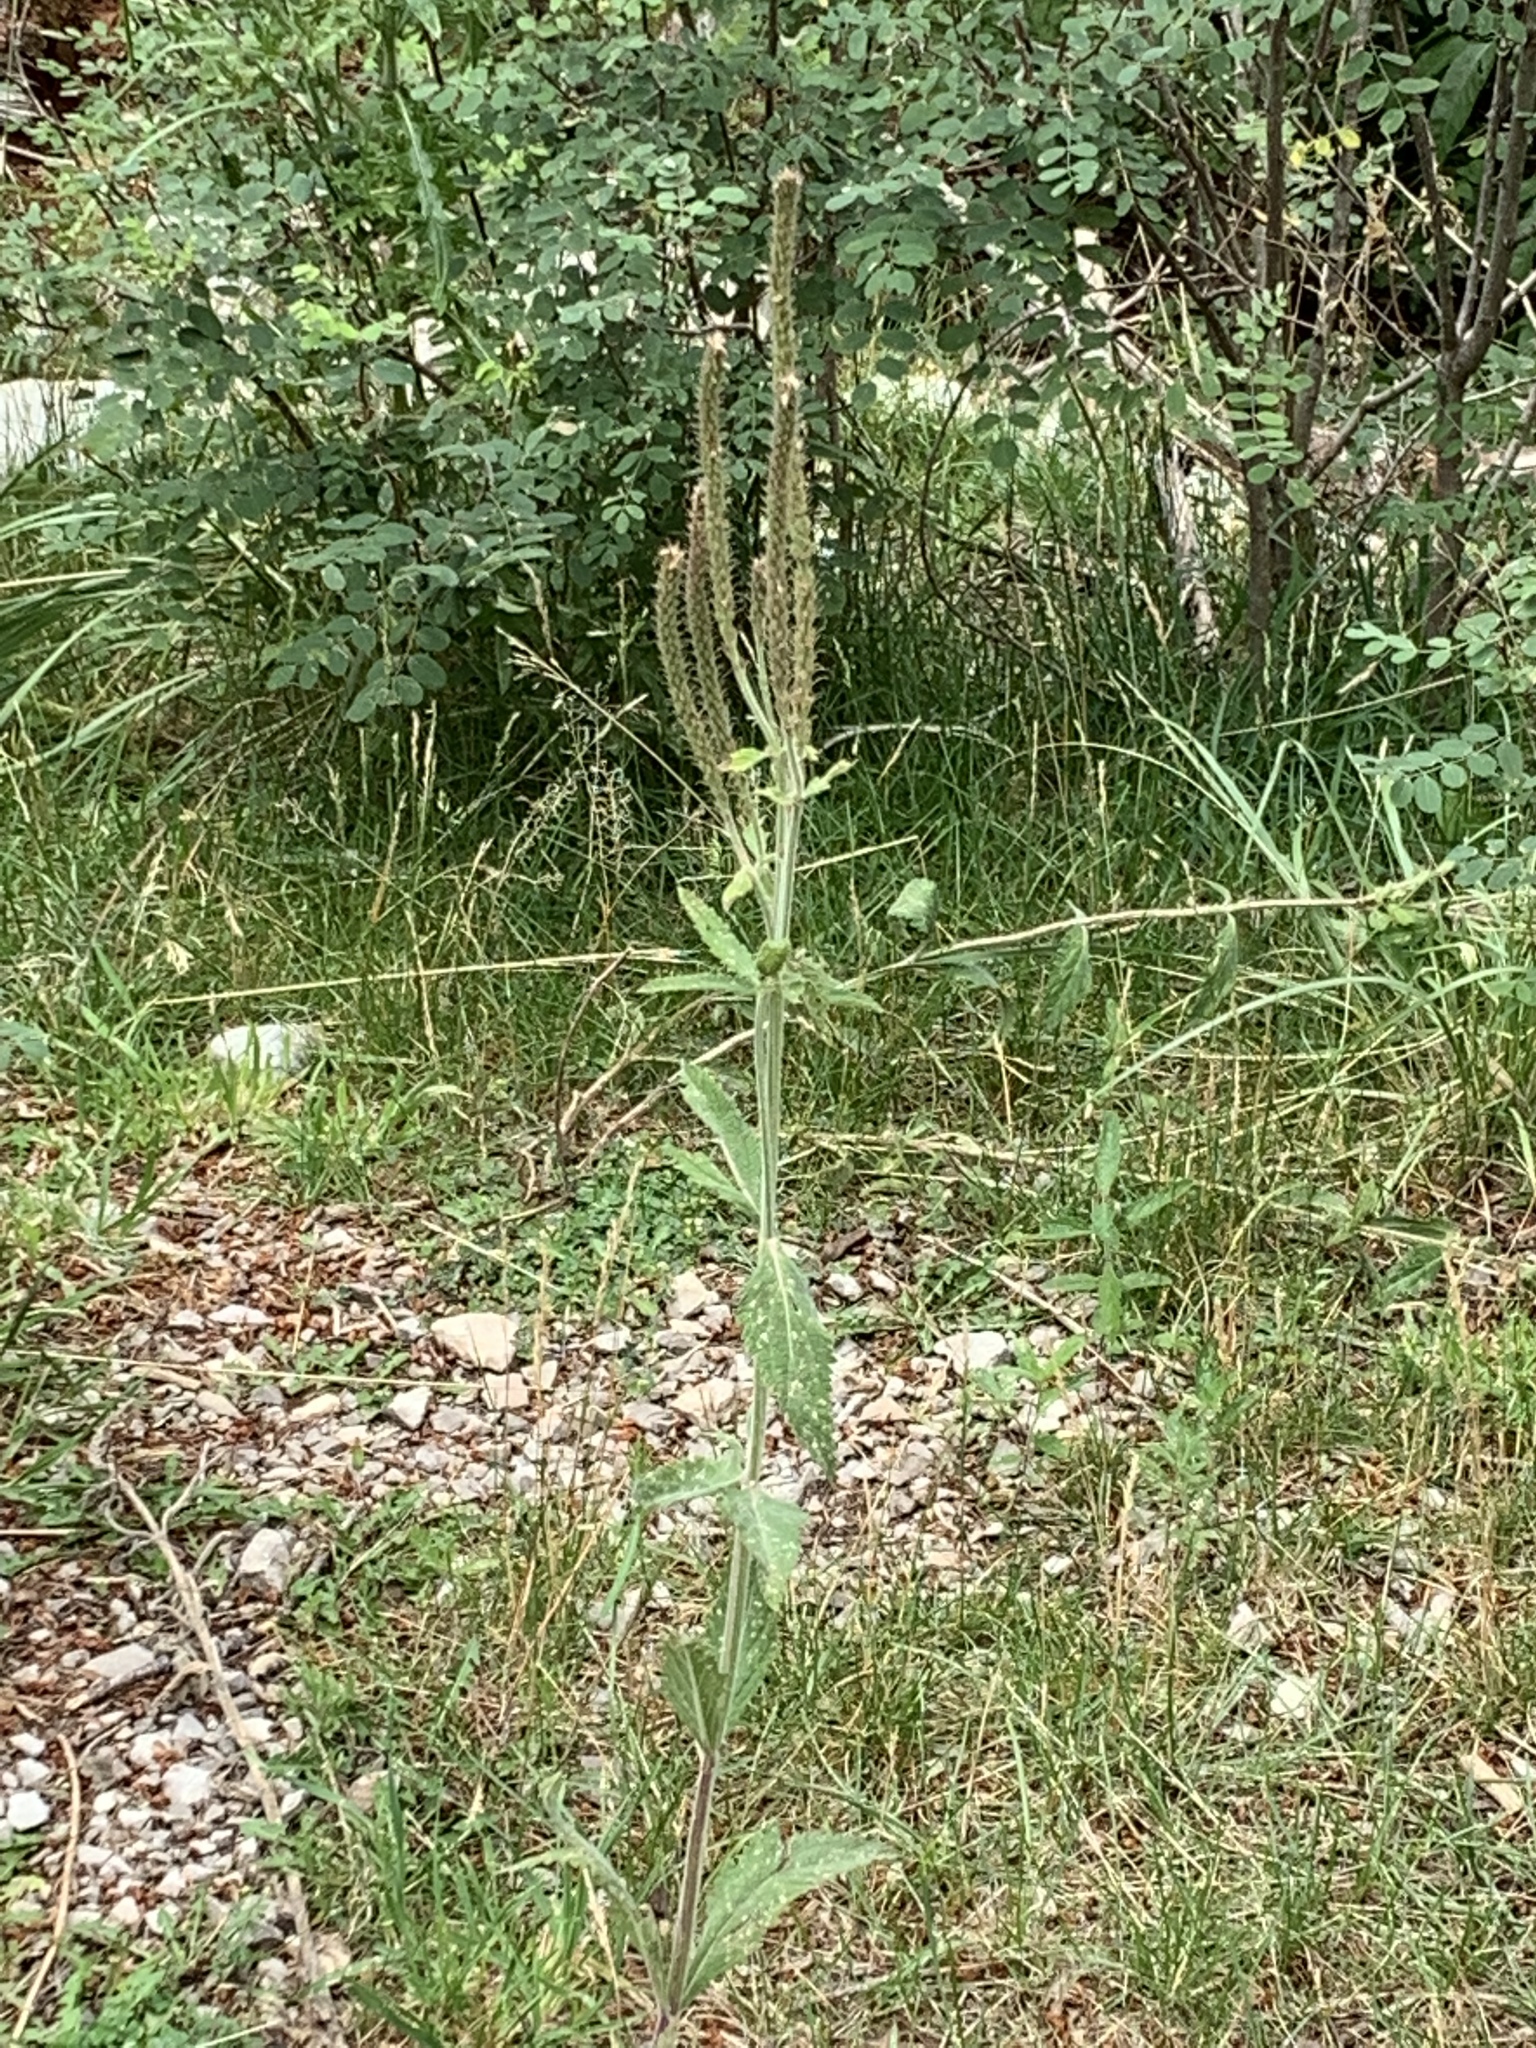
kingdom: Plantae
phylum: Tracheophyta
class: Magnoliopsida
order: Lamiales
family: Verbenaceae
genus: Verbena
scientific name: Verbena macdougalii
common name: New mexico vervain
